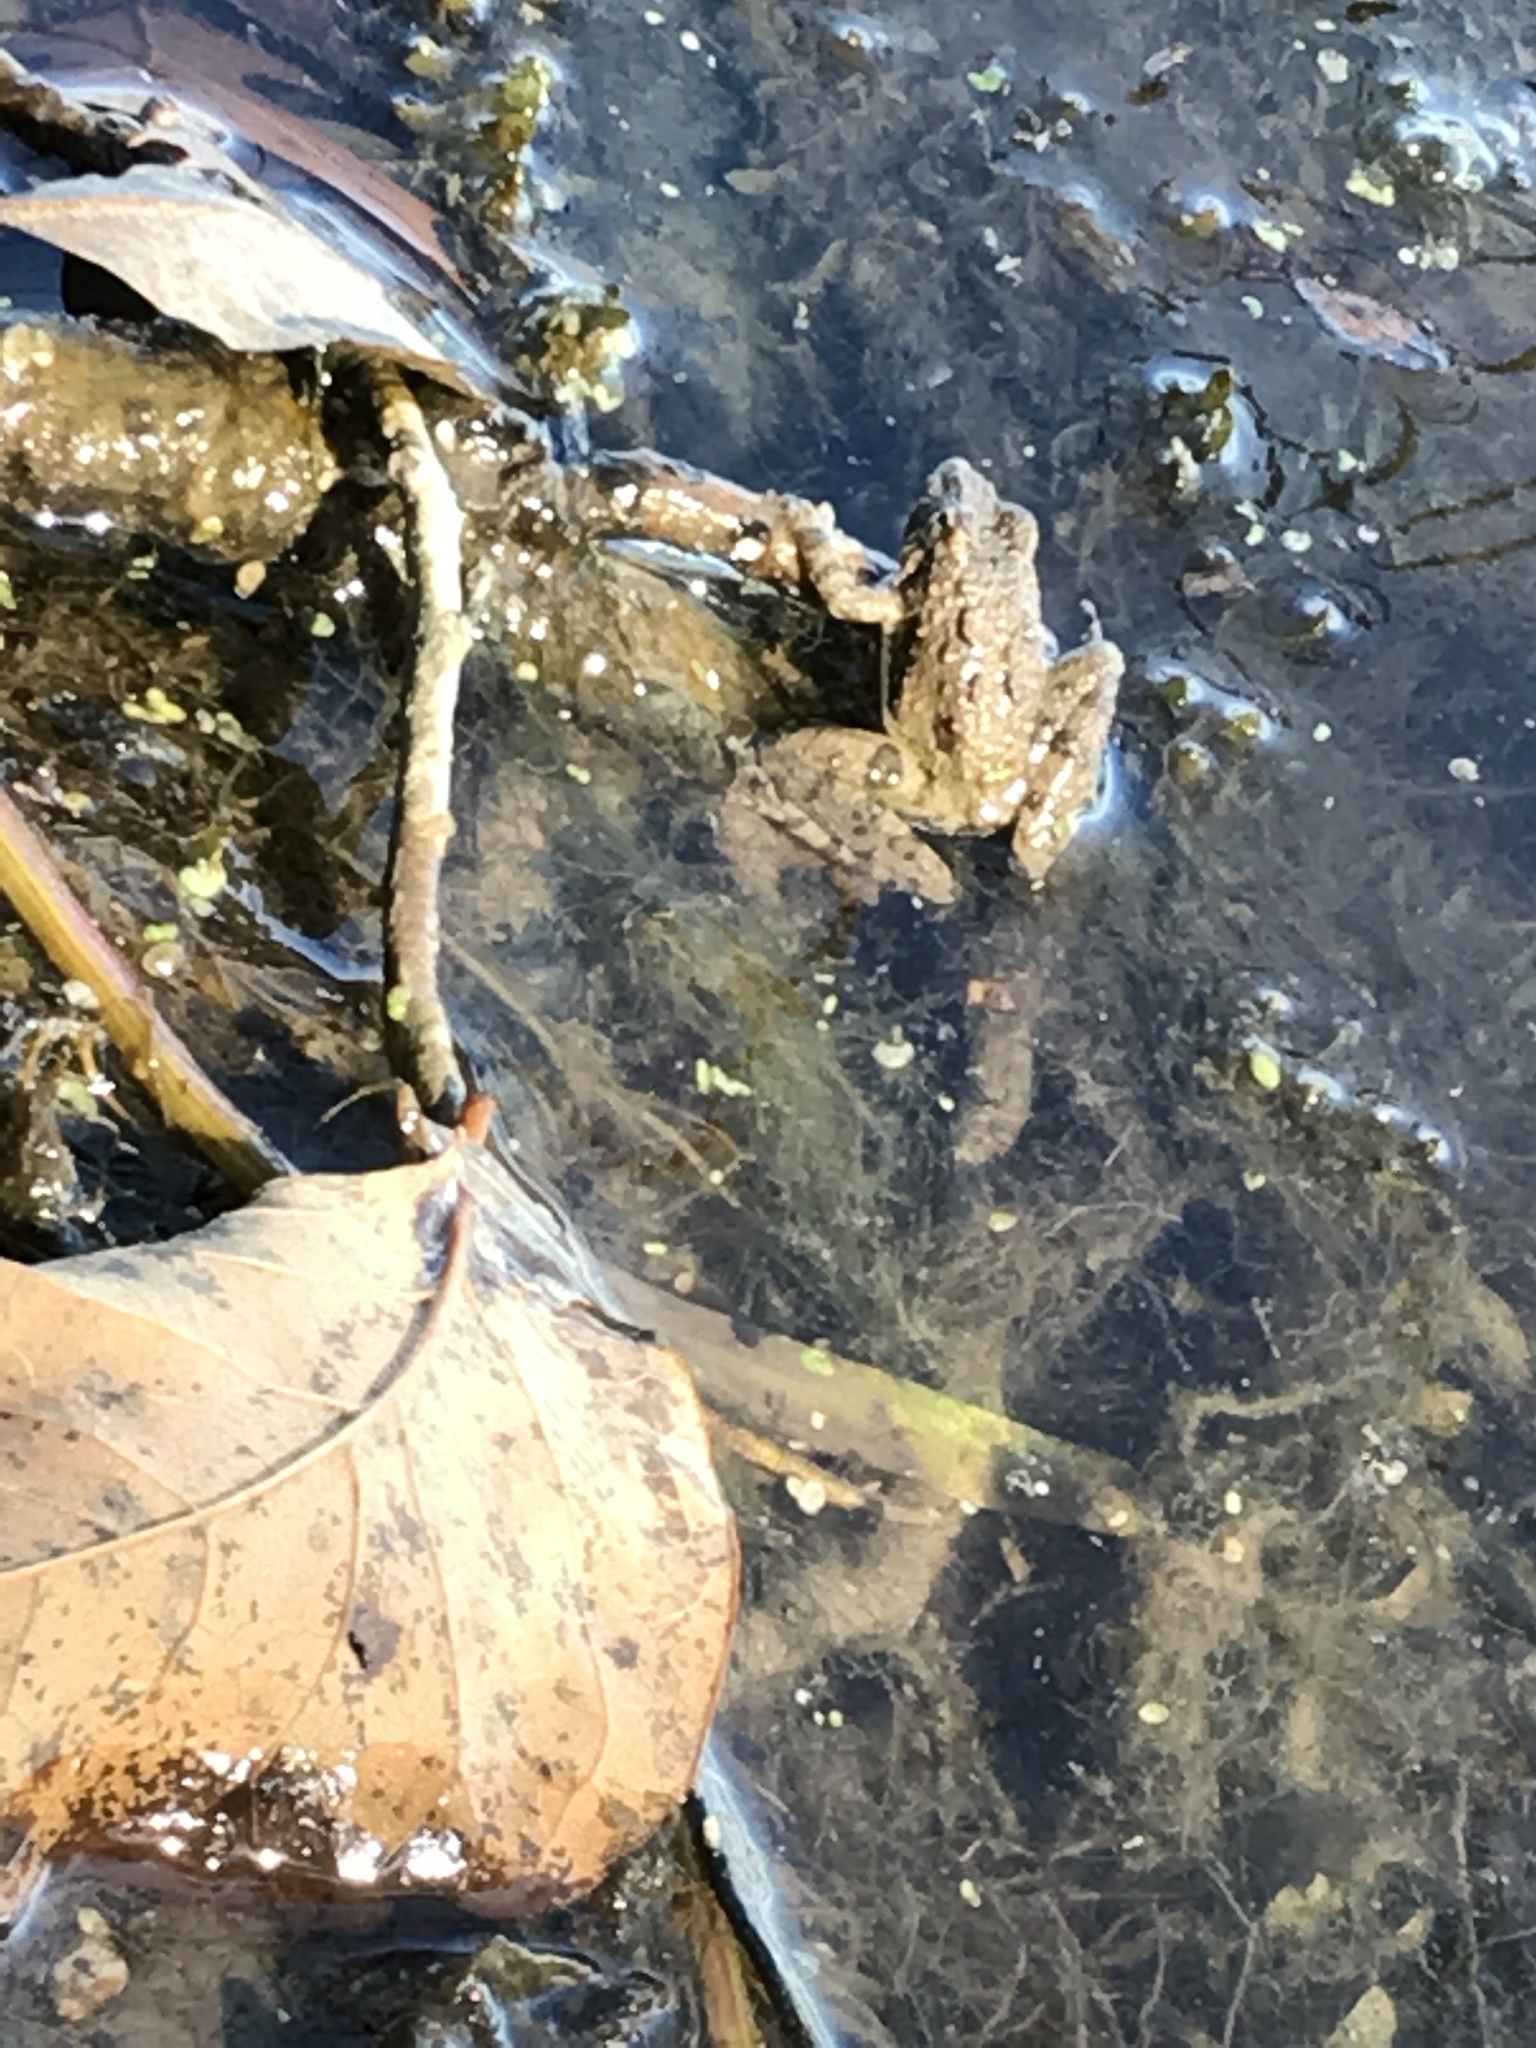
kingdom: Animalia
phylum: Chordata
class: Amphibia
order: Anura
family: Hylidae
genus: Acris
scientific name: Acris blanchardi
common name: Blanchard's cricket frog
